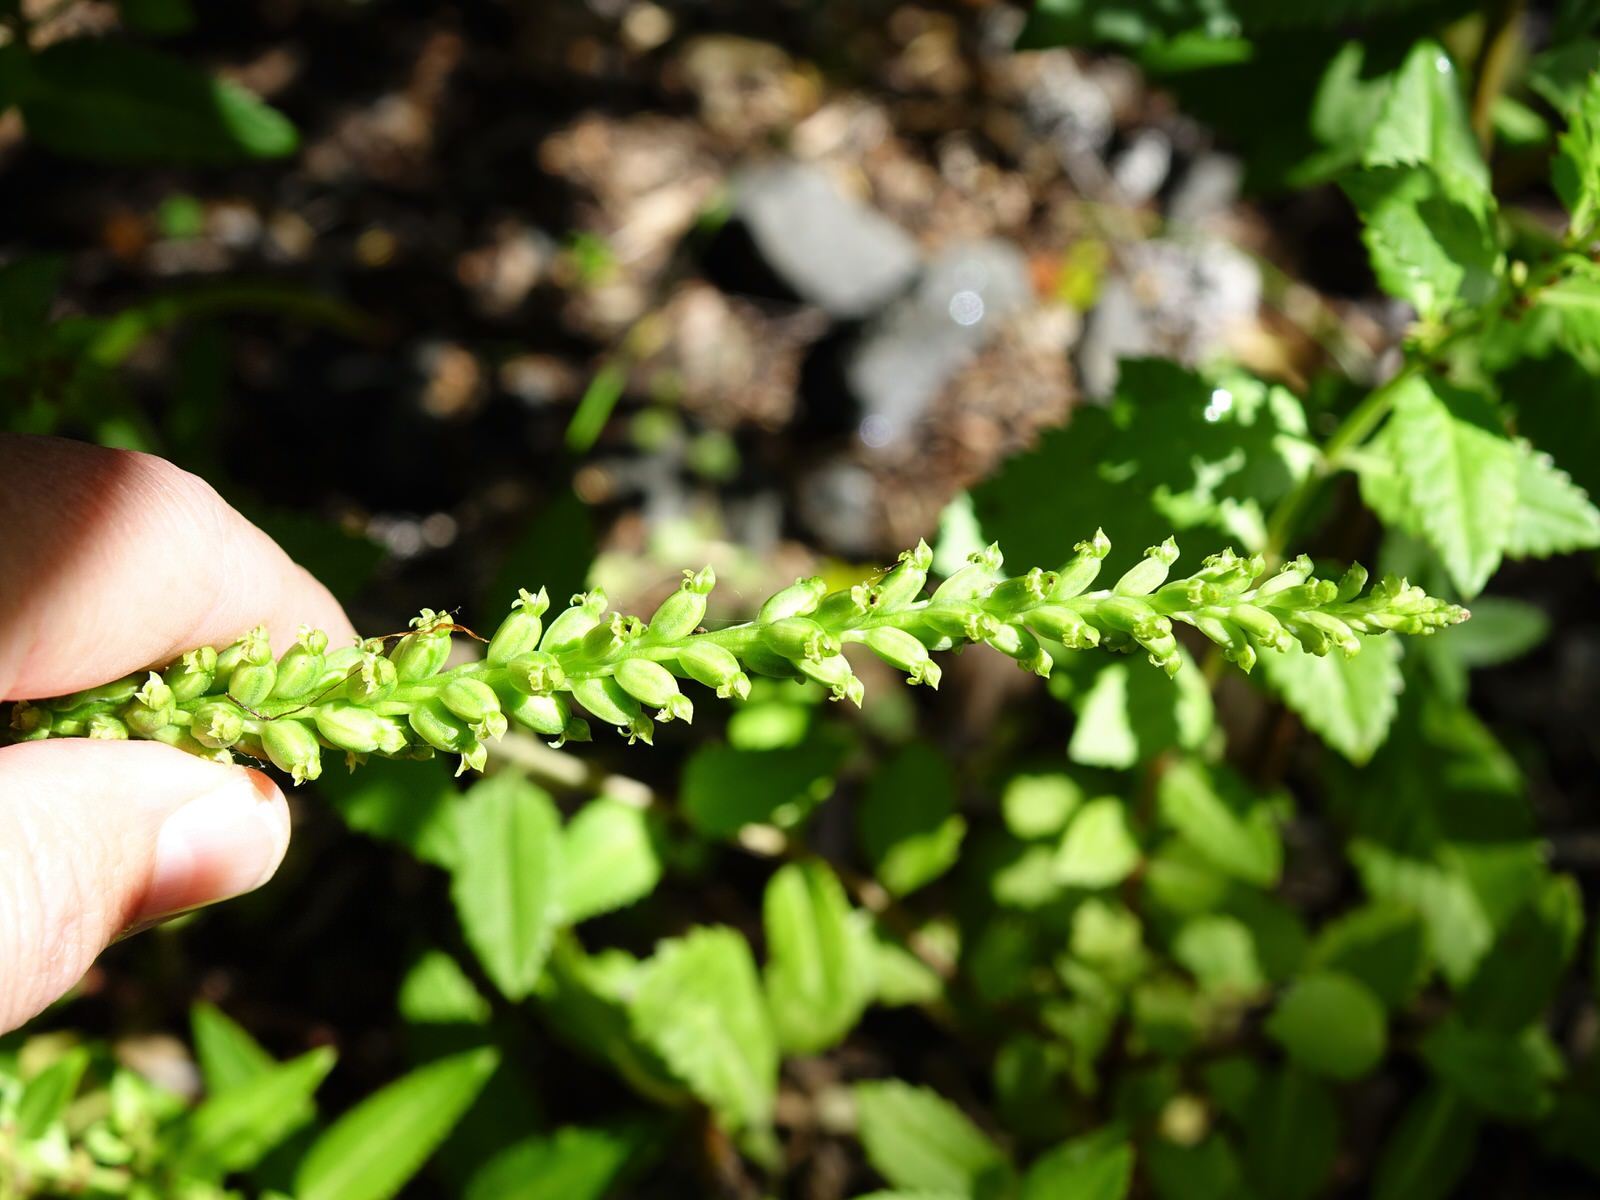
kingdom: Plantae
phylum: Tracheophyta
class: Liliopsida
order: Asparagales
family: Orchidaceae
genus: Microtis
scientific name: Microtis unifolia
